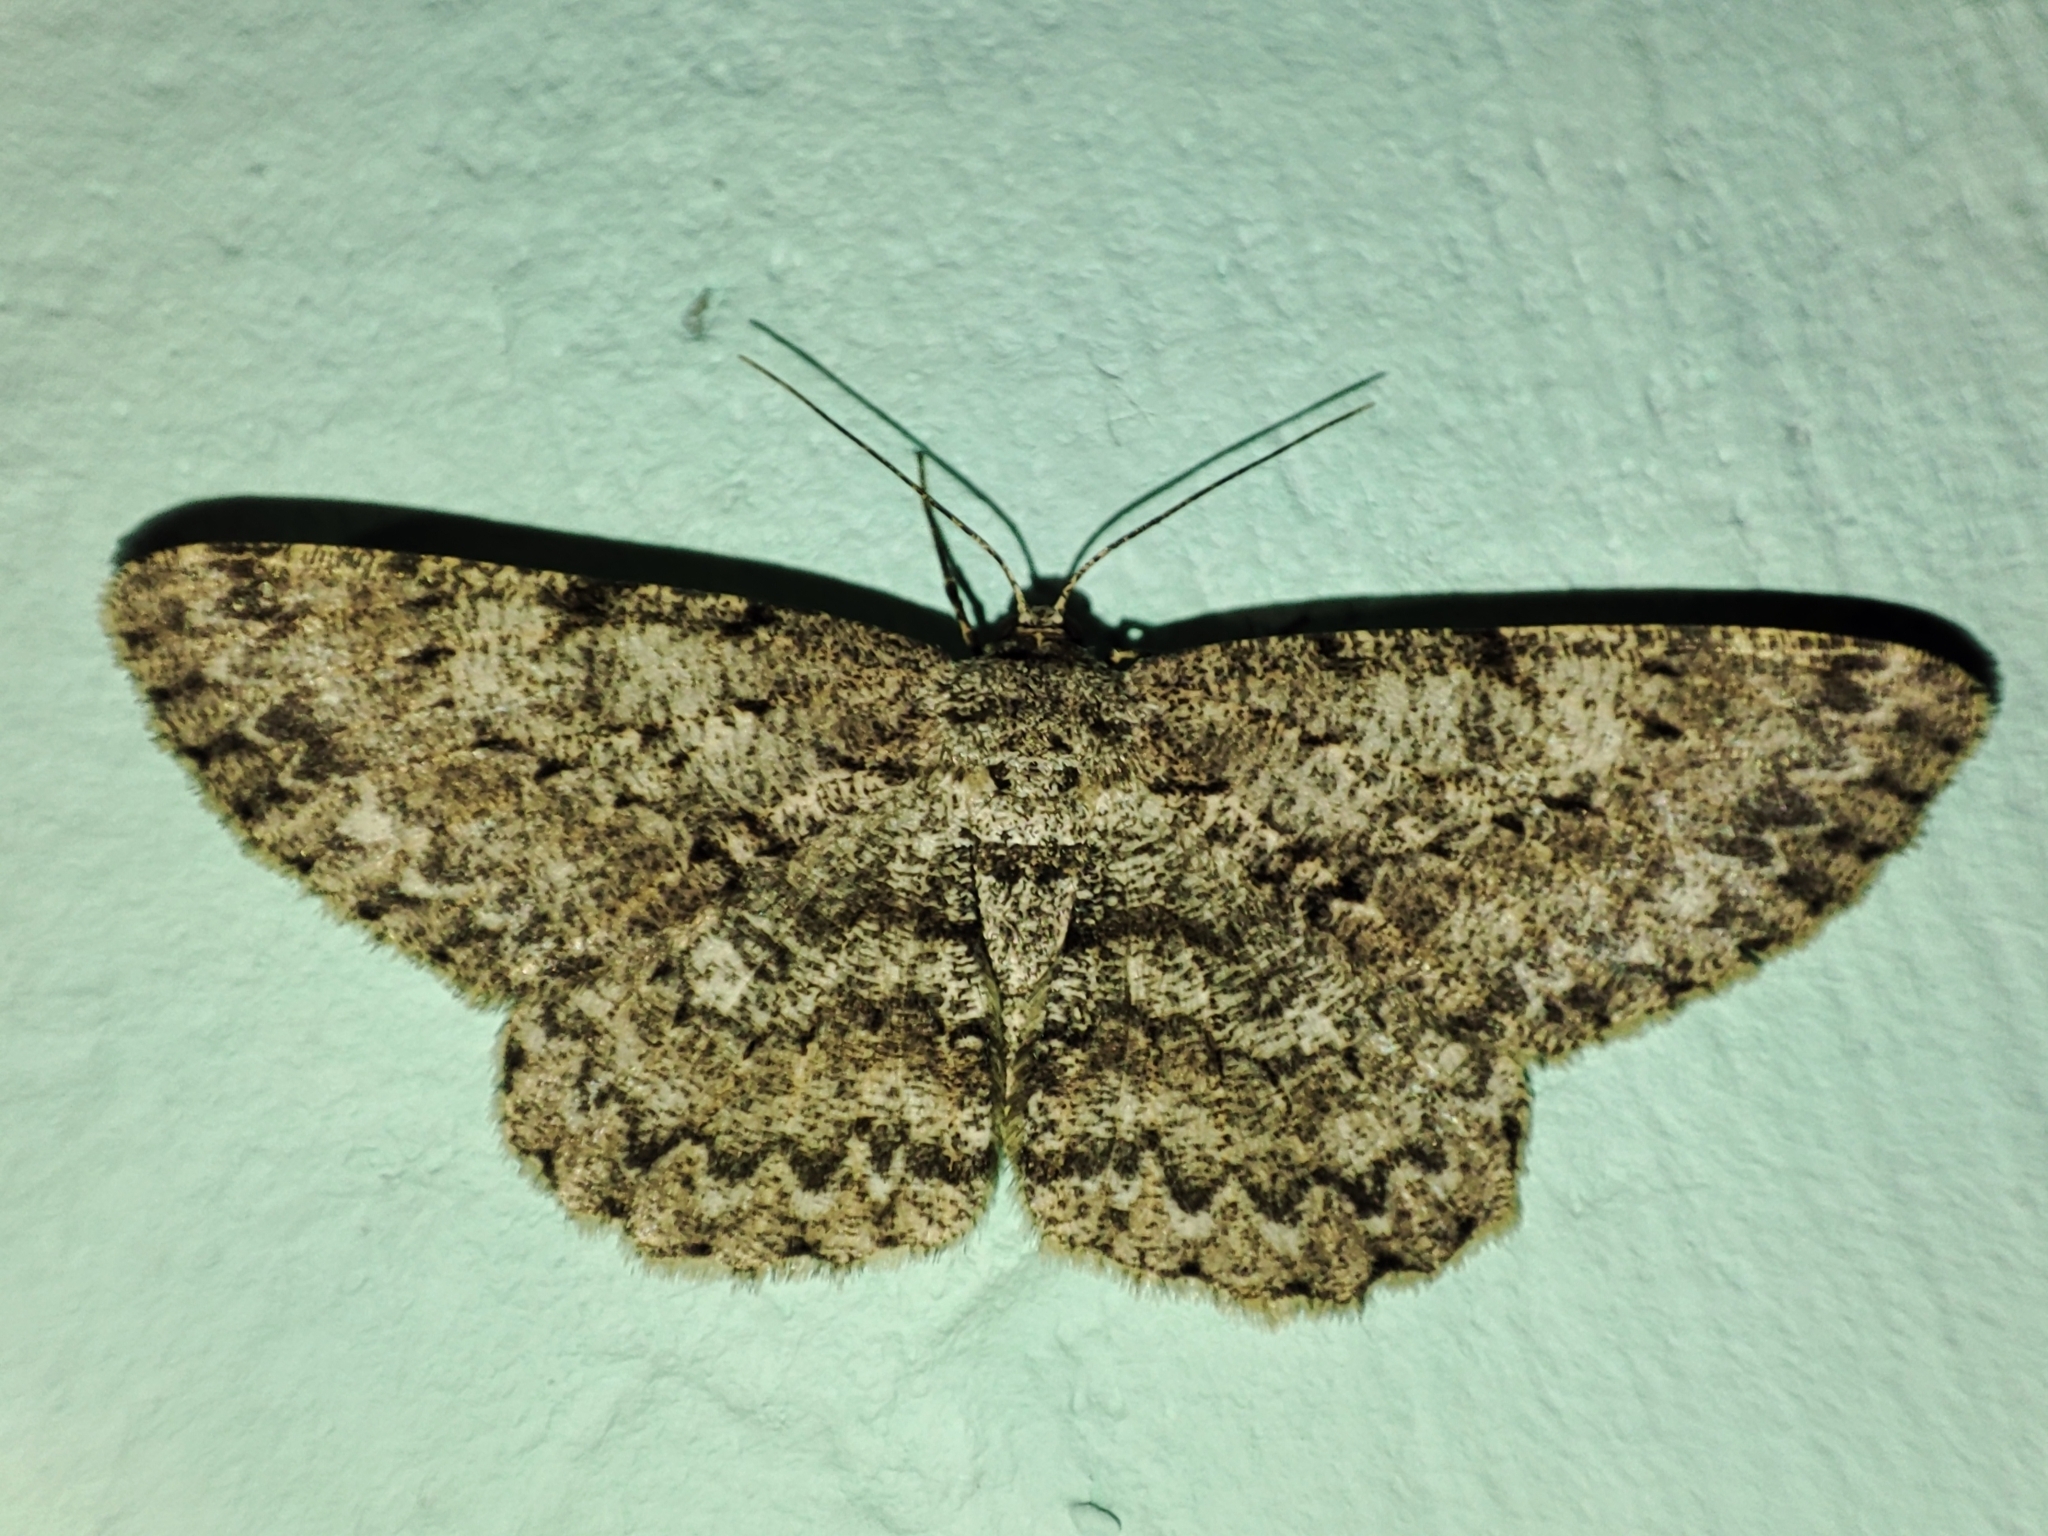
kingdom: Animalia
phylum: Arthropoda
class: Insecta
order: Lepidoptera
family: Geometridae
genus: Hypomecis
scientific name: Hypomecis punctinalis
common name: Pale oak beauty
